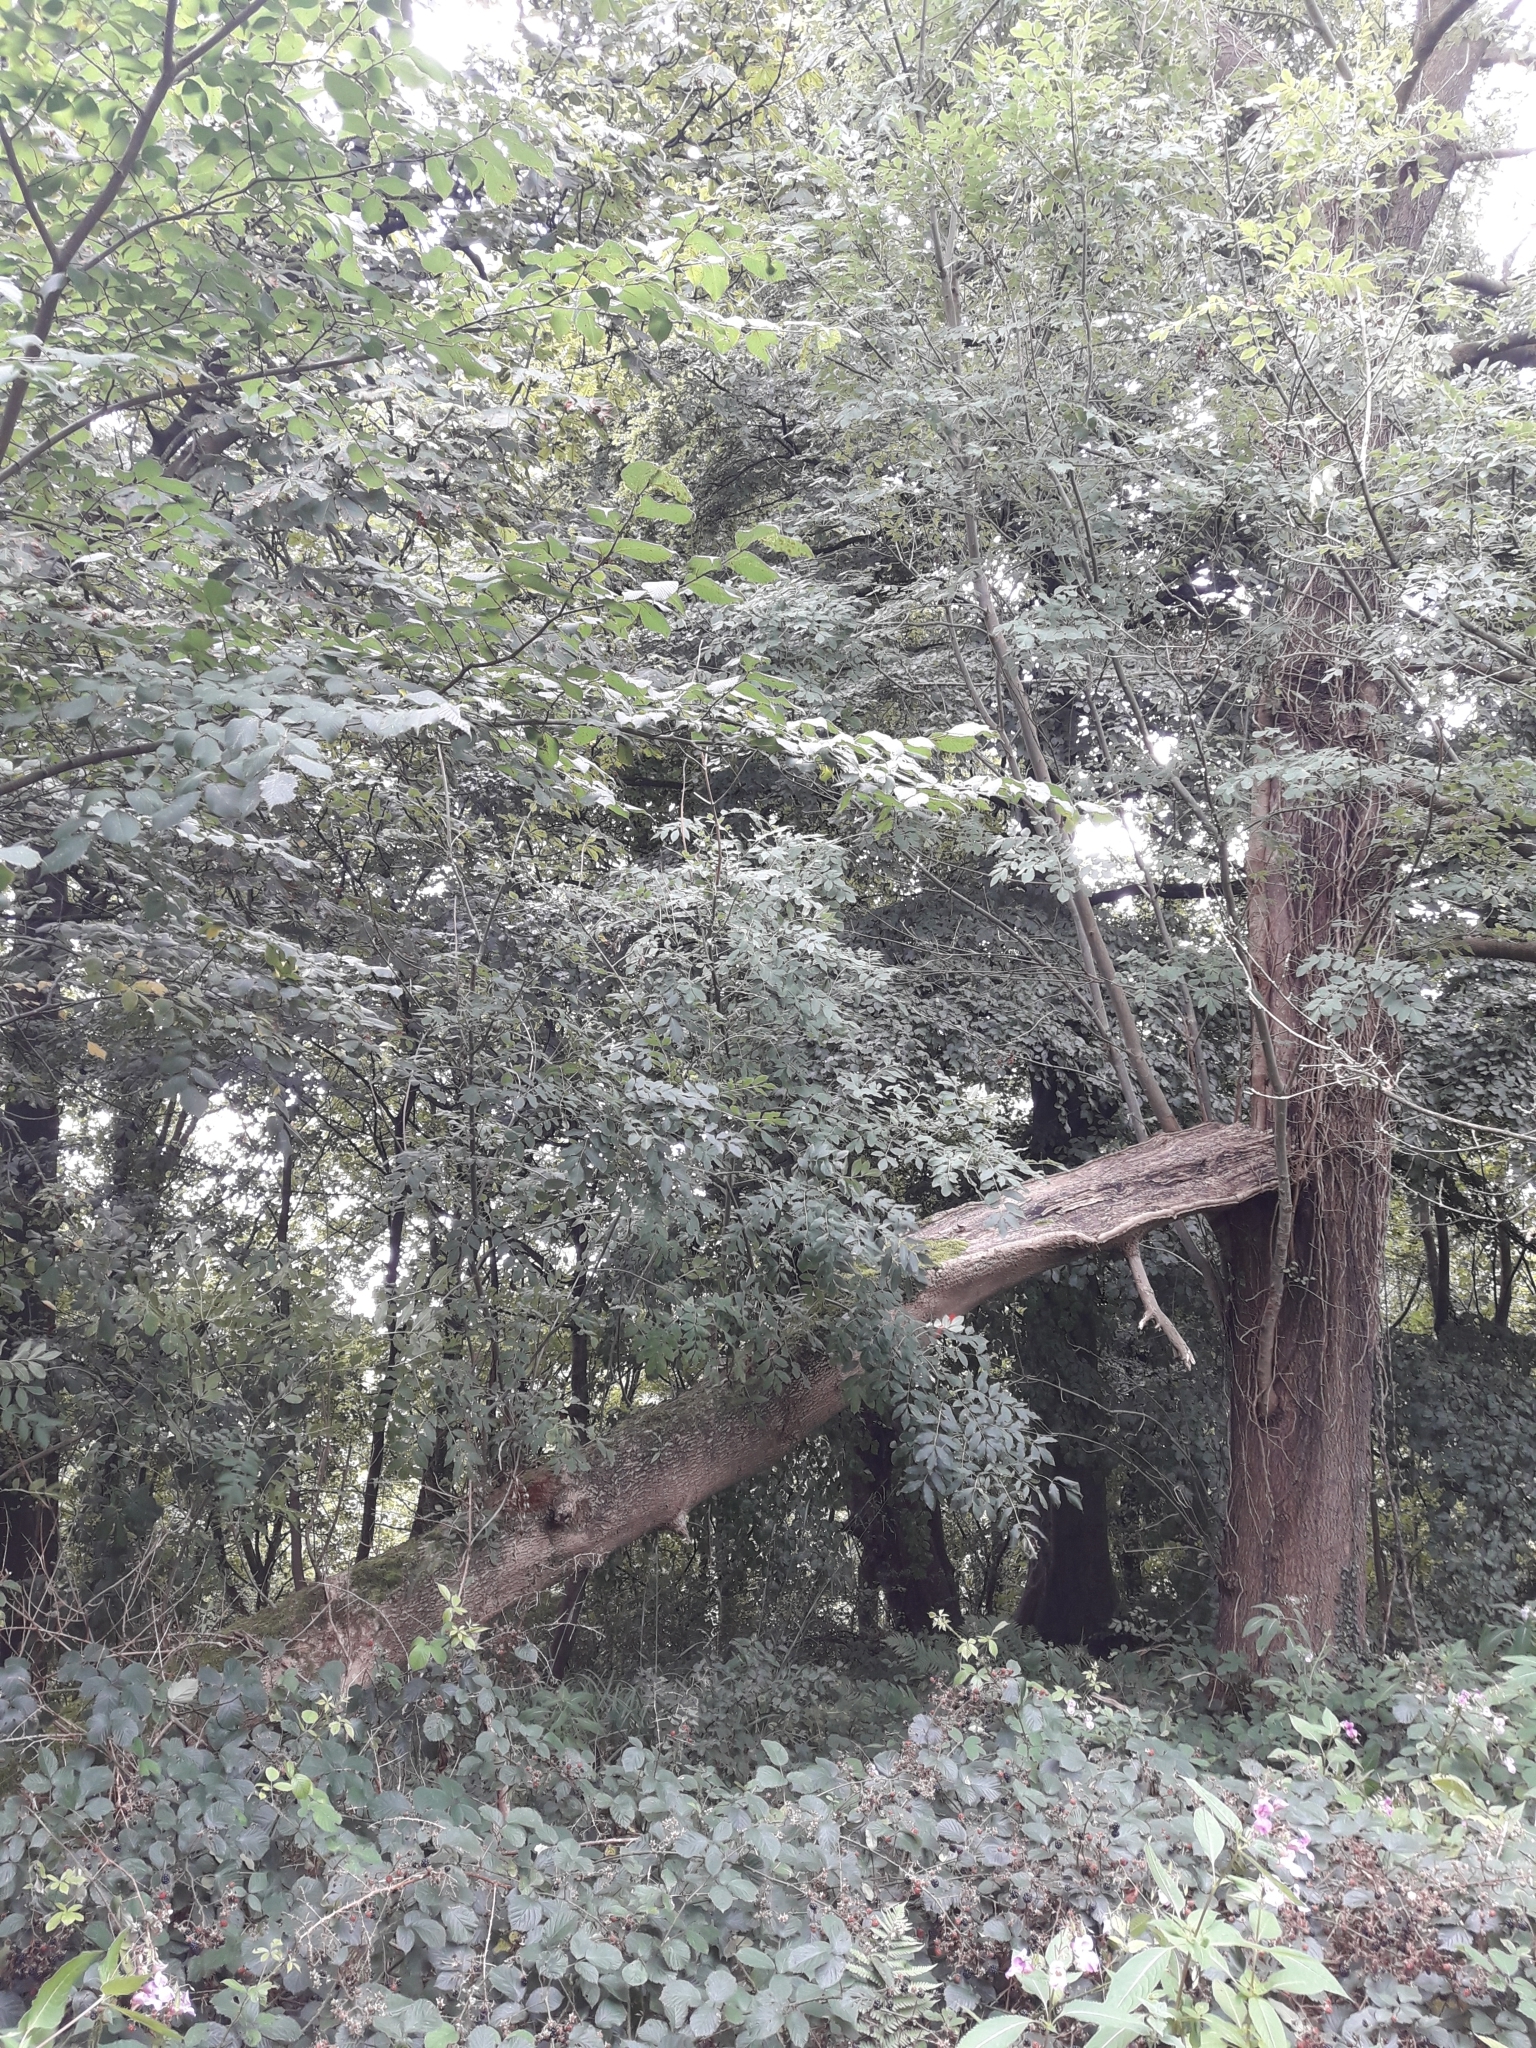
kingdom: Plantae
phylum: Tracheophyta
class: Magnoliopsida
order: Lamiales
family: Oleaceae
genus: Fraxinus
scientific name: Fraxinus excelsior
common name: European ash
